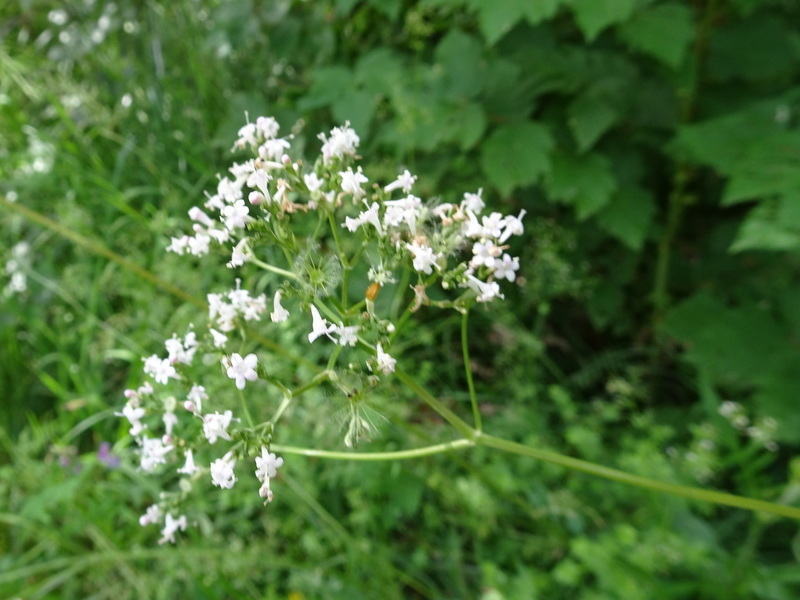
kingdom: Plantae
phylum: Tracheophyta
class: Magnoliopsida
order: Dipsacales
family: Caprifoliaceae
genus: Valeriana
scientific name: Valeriana officinalis
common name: Common valerian
